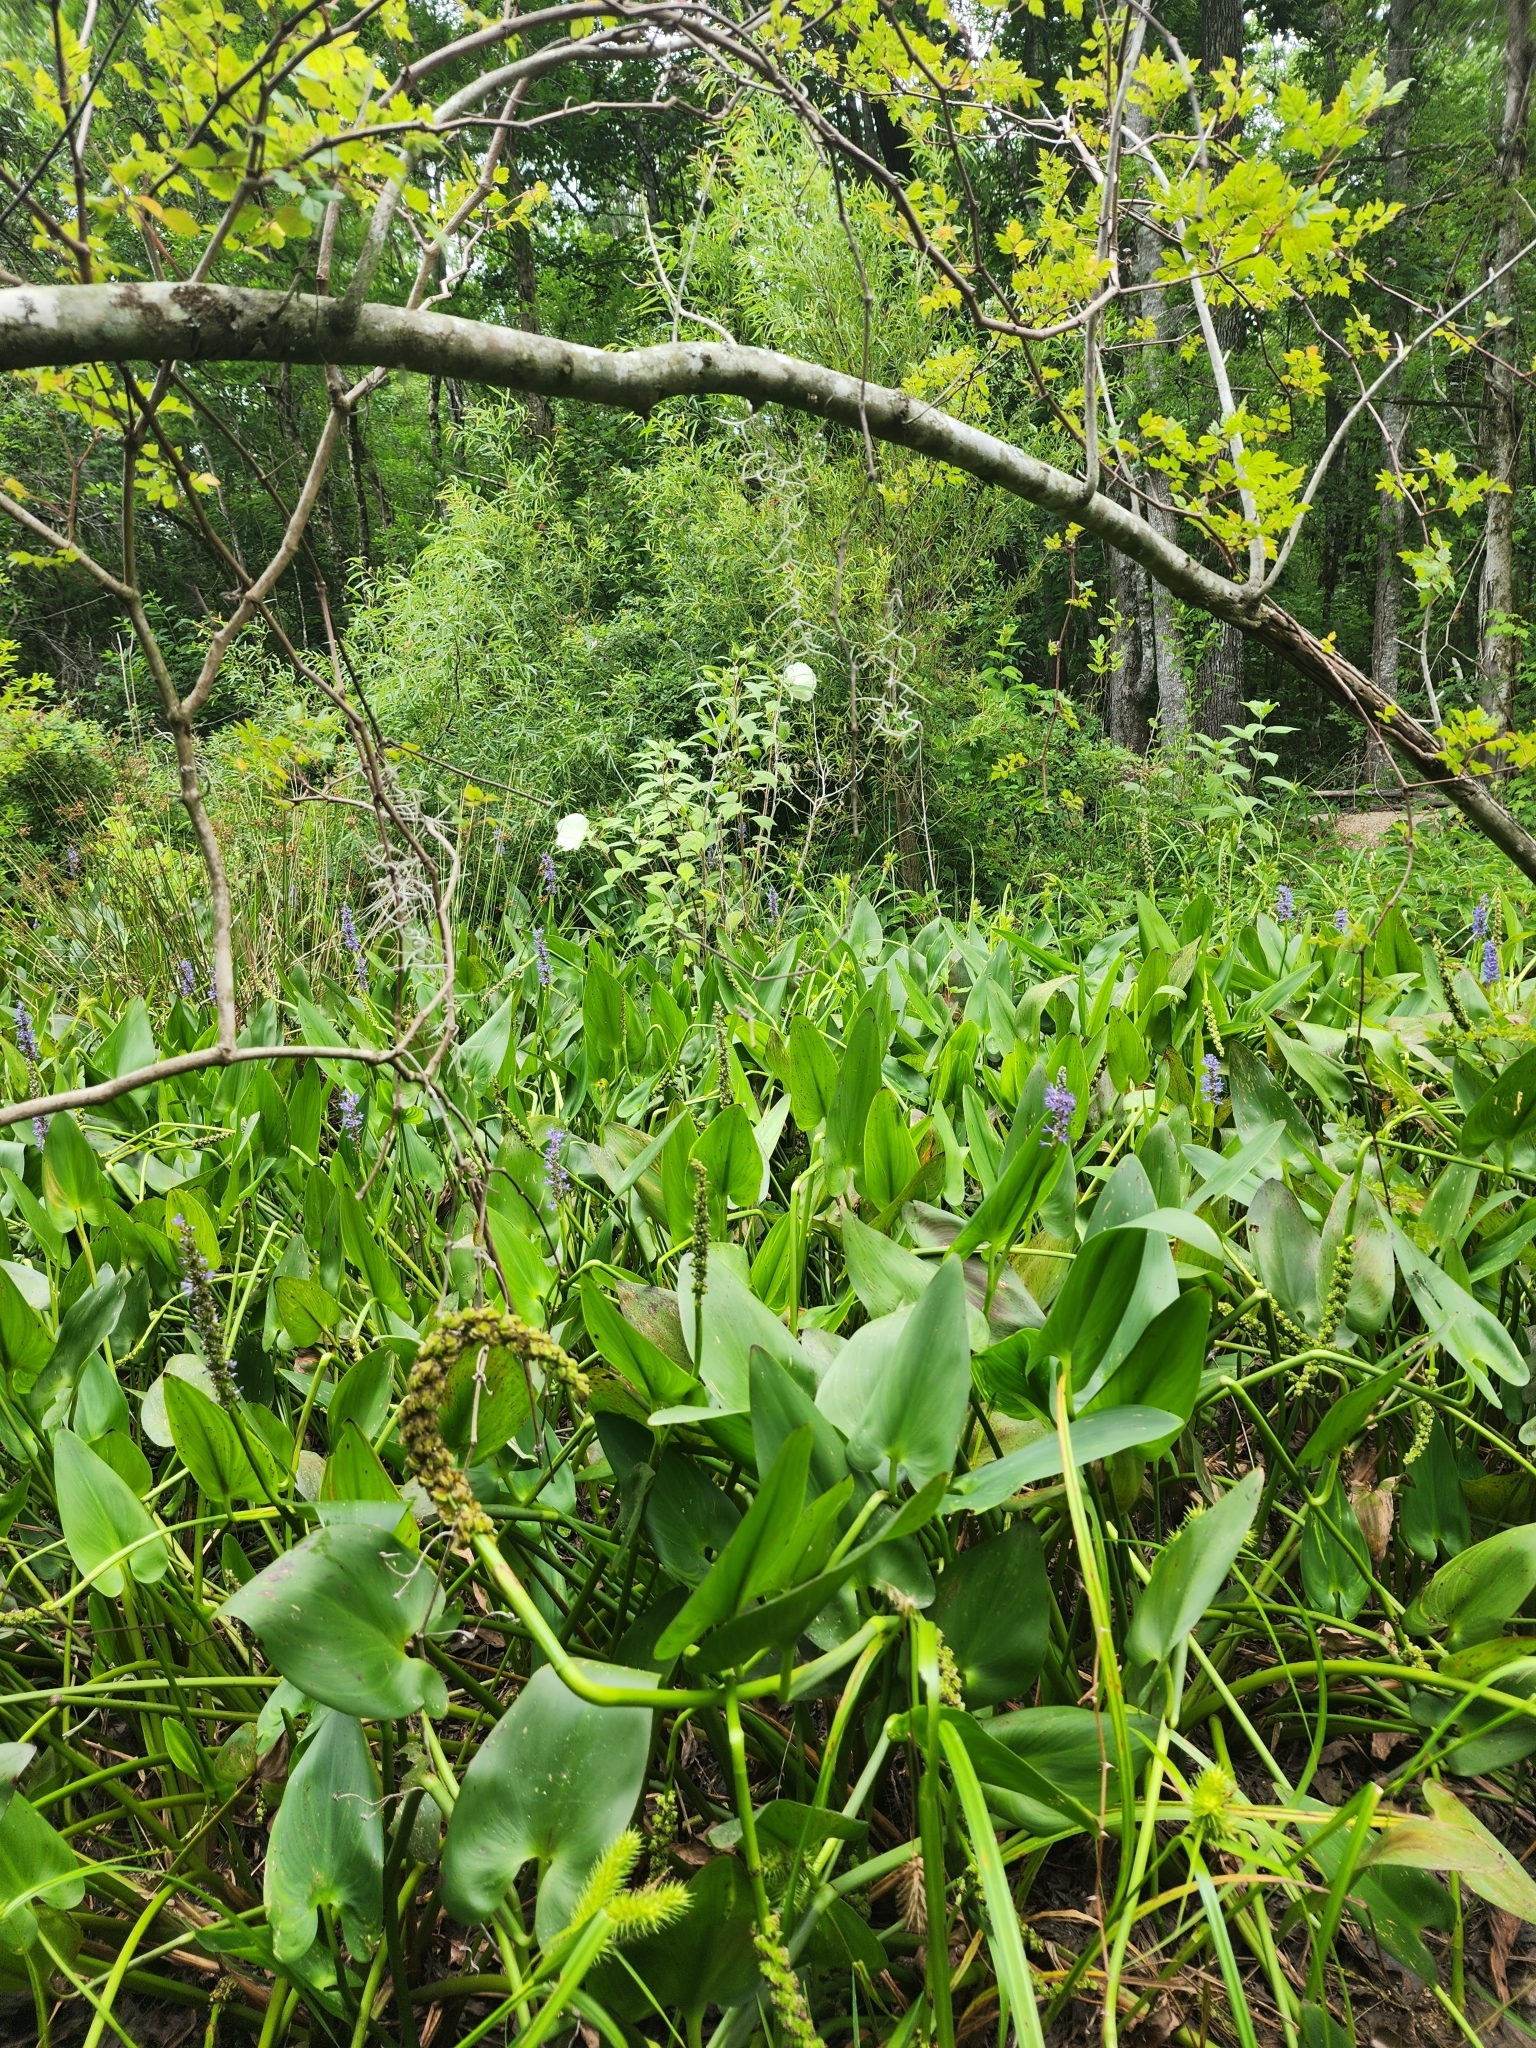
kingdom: Plantae
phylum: Tracheophyta
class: Magnoliopsida
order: Malvales
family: Malvaceae
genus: Hibiscus
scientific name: Hibiscus moscheutos
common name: Common rose-mallow
